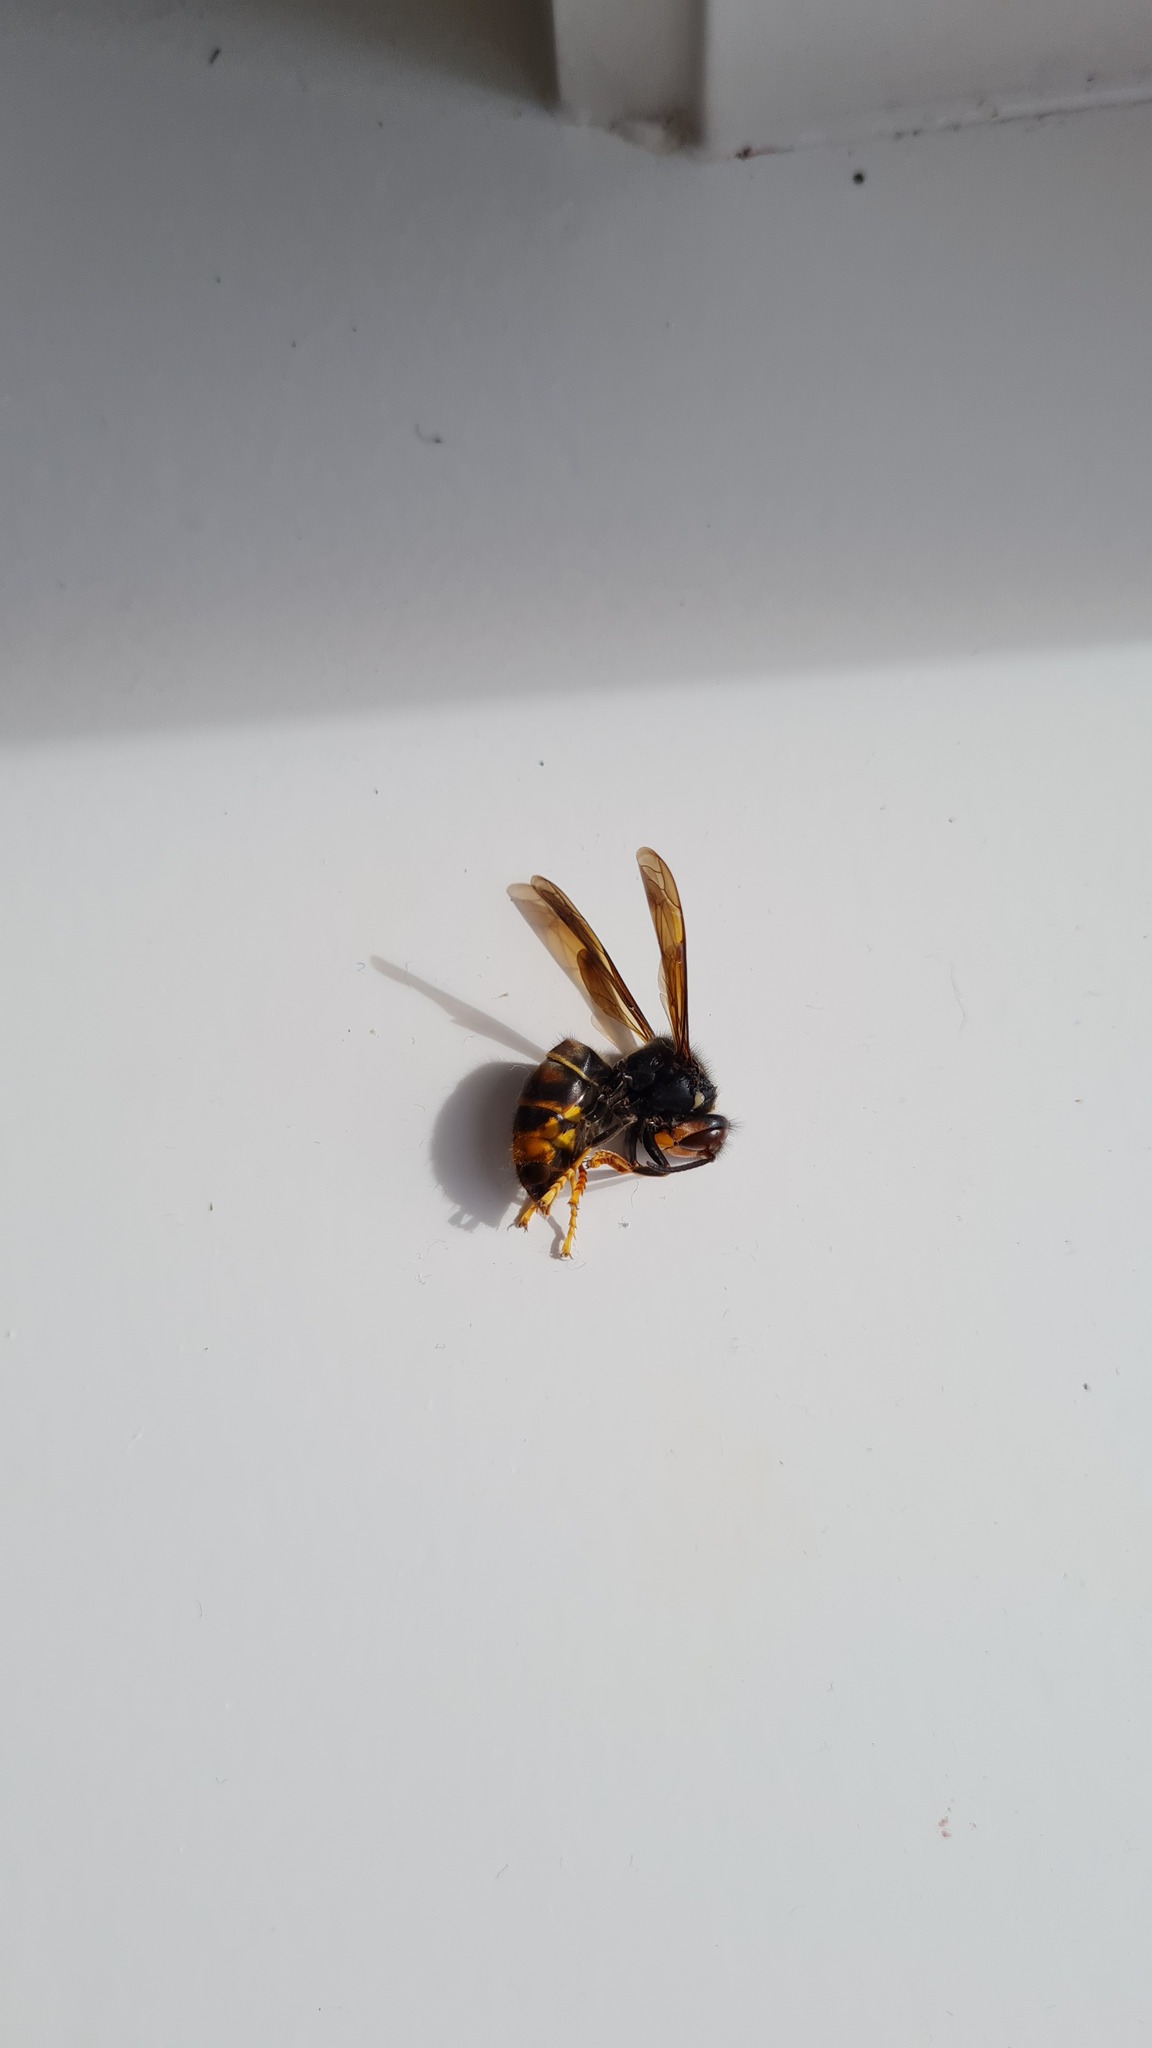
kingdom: Animalia
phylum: Arthropoda
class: Insecta
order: Hymenoptera
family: Vespidae
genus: Vespa
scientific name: Vespa velutina
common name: Asian hornet
